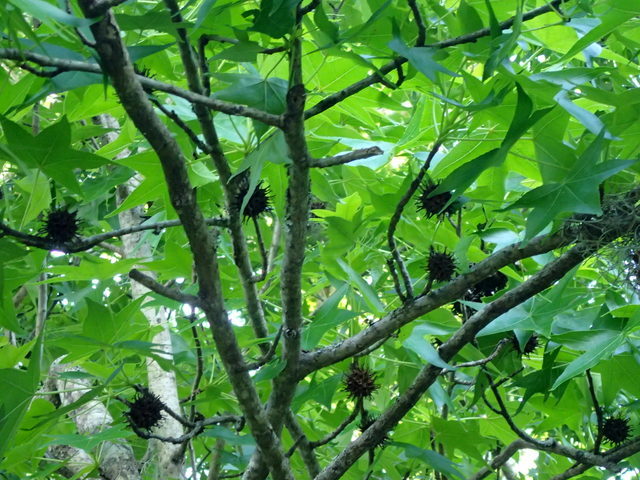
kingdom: Plantae
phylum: Tracheophyta
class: Magnoliopsida
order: Saxifragales
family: Altingiaceae
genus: Liquidambar
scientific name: Liquidambar styraciflua
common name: Sweet gum
